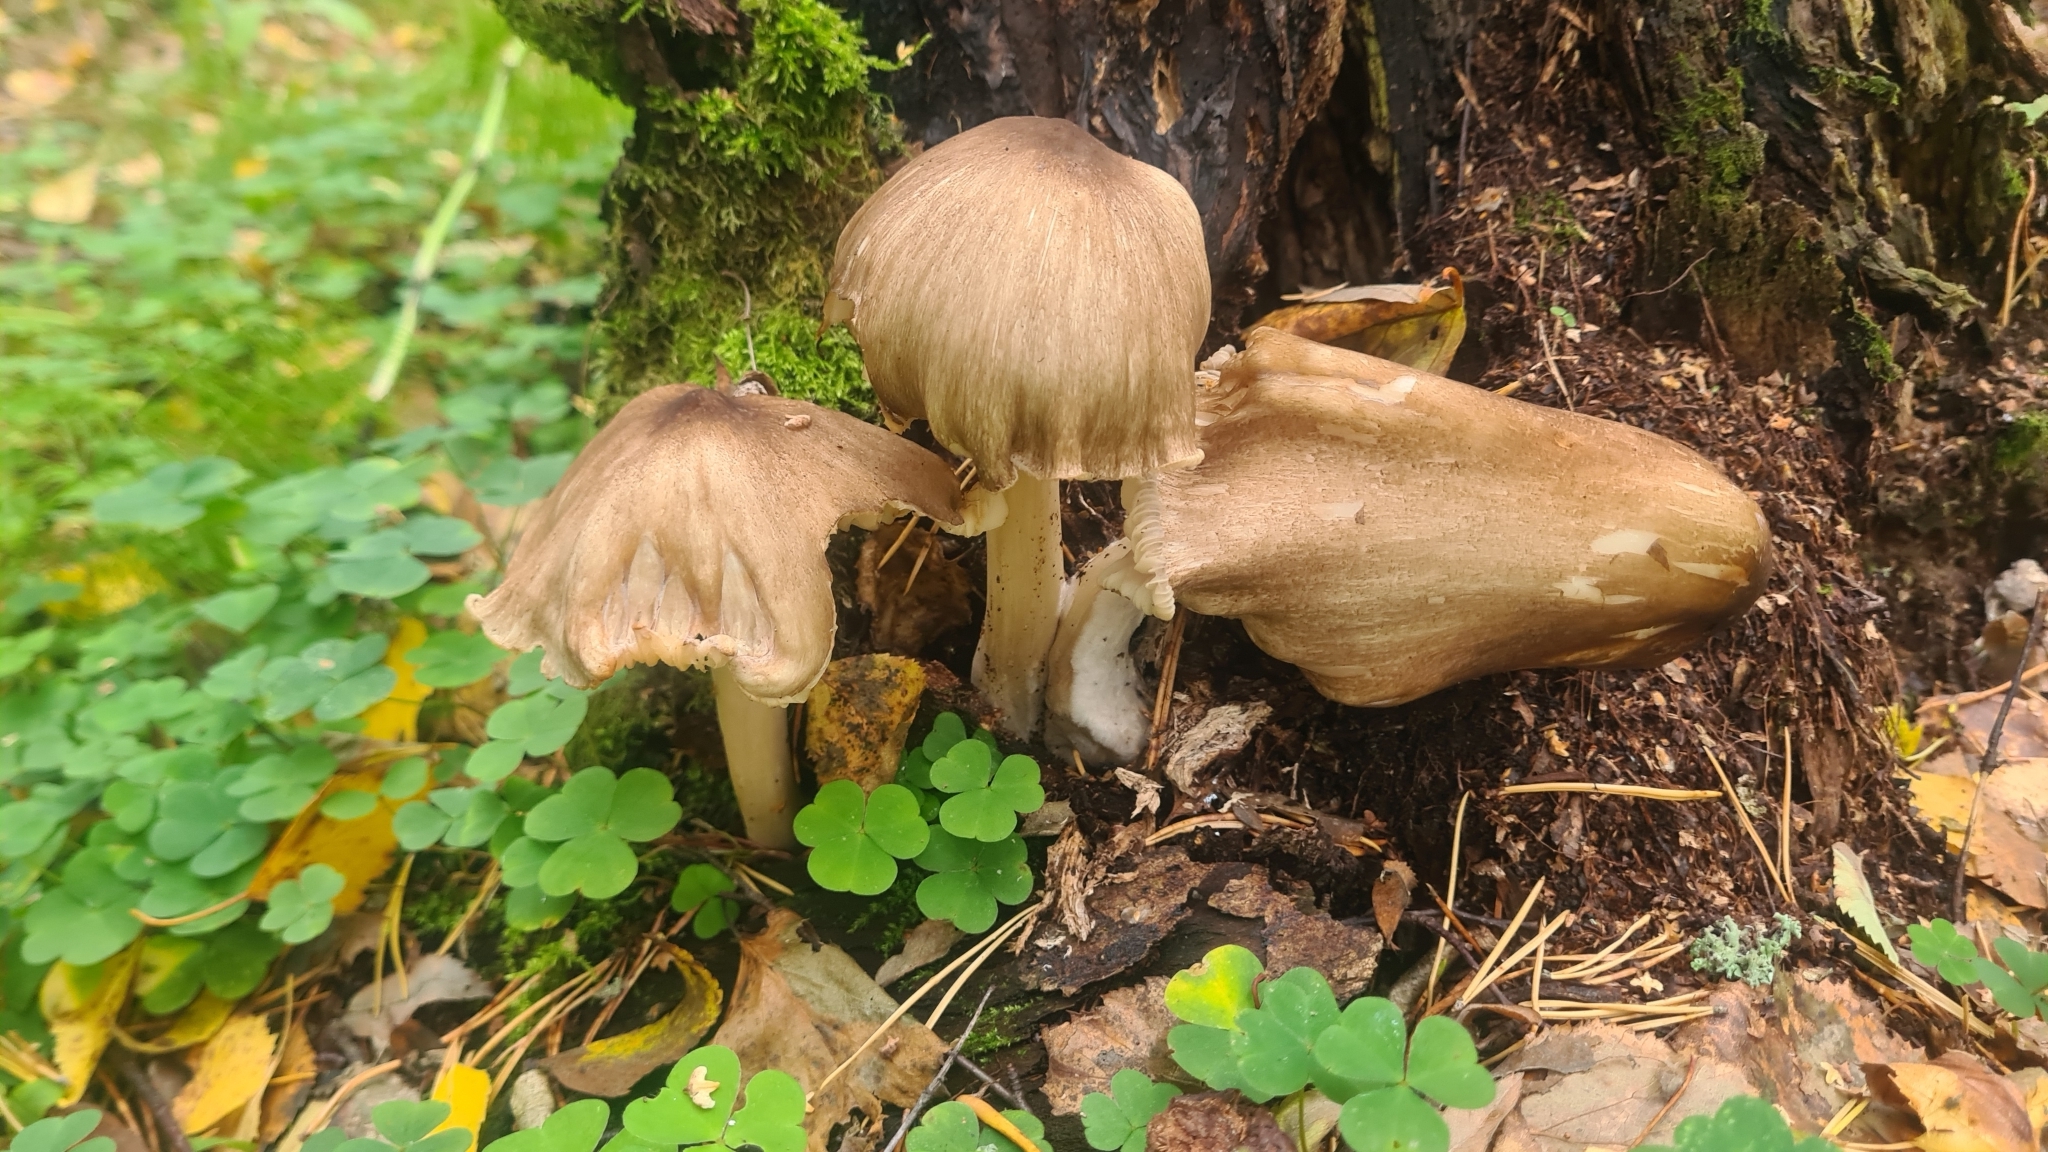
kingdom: Fungi
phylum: Basidiomycota
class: Agaricomycetes
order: Agaricales
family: Tricholomataceae
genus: Megacollybia
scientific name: Megacollybia platyphylla
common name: Whitelaced shank
